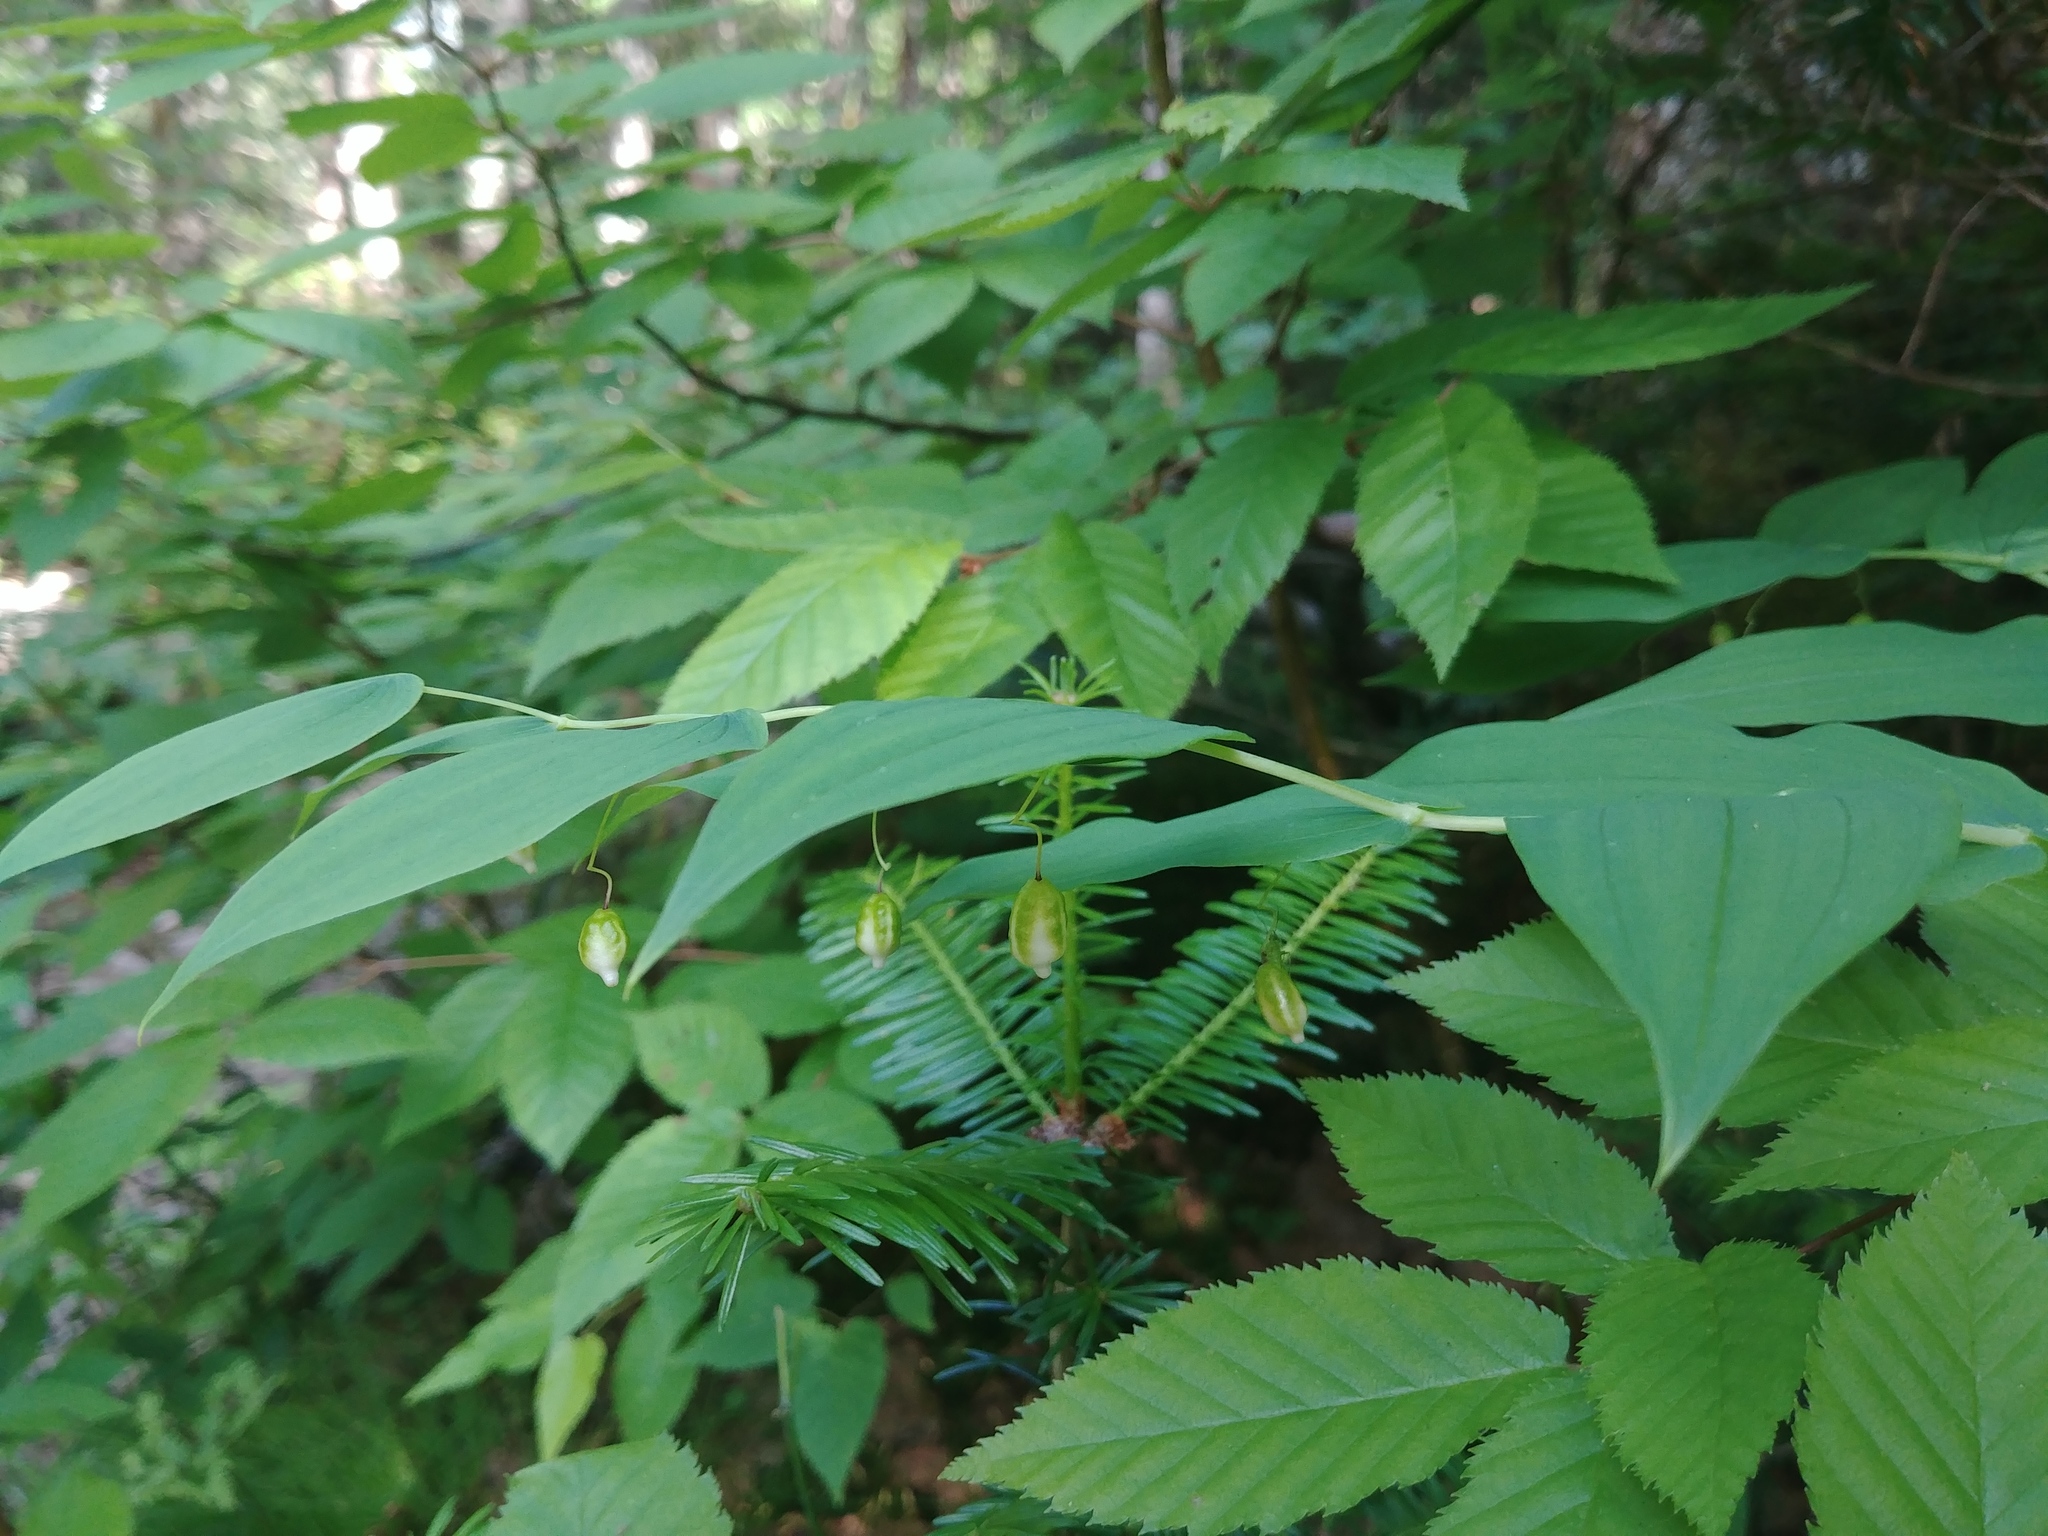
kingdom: Plantae
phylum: Tracheophyta
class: Liliopsida
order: Liliales
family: Liliaceae
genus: Streptopus
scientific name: Streptopus amplexifolius
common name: Clasp twisted stalk
